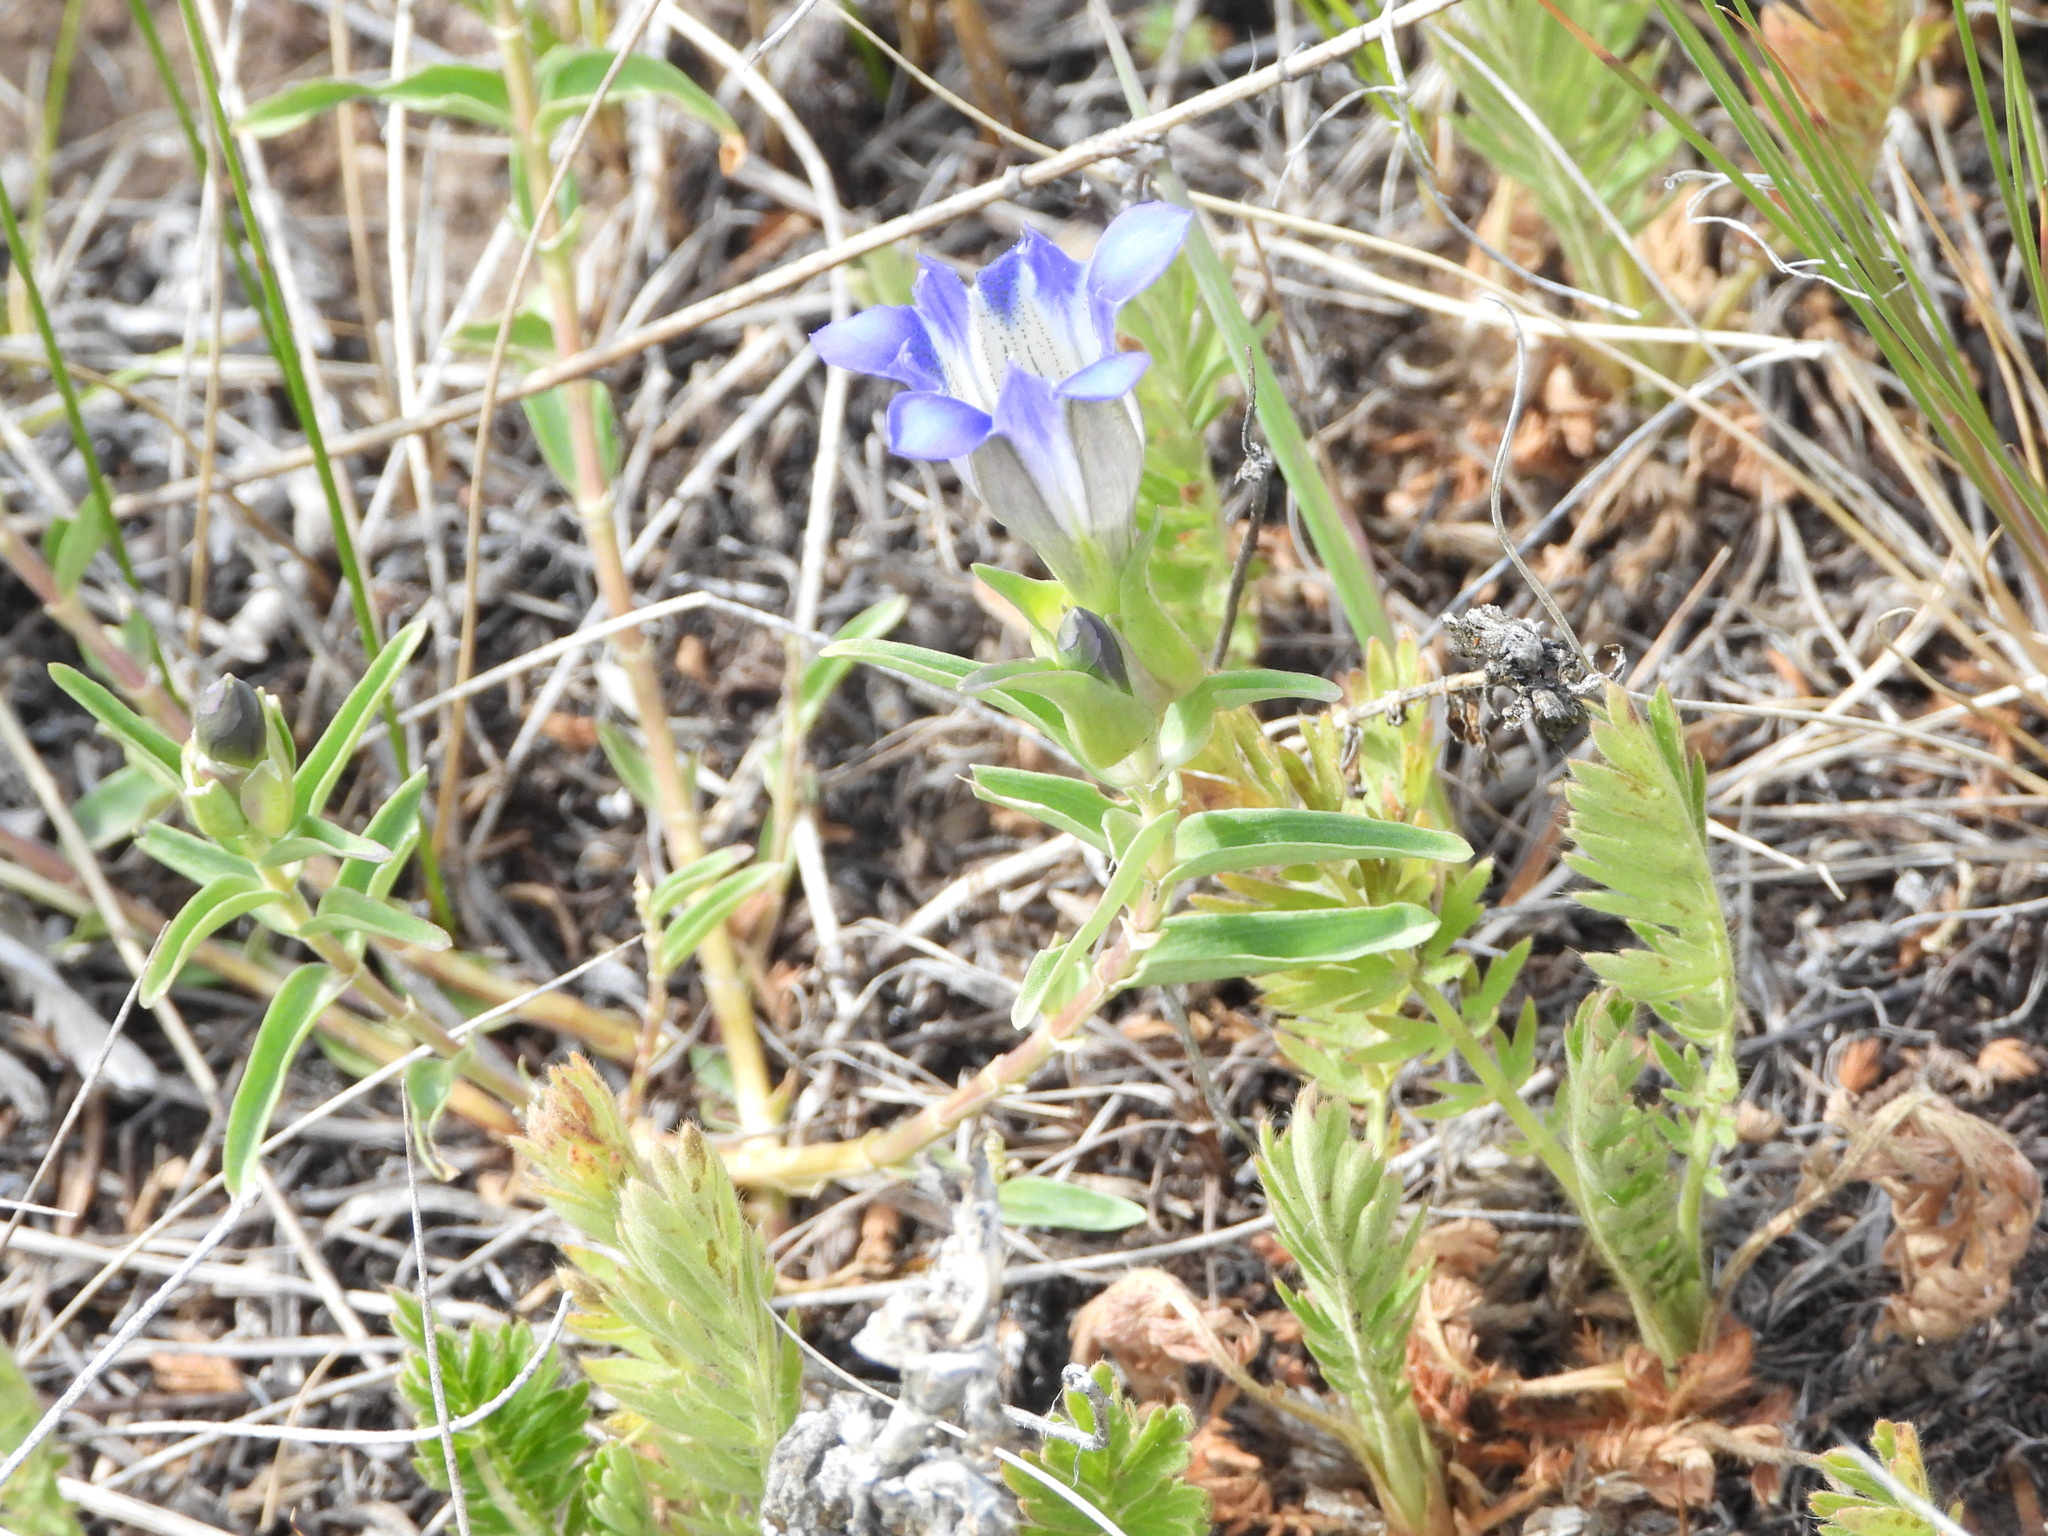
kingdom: Plantae
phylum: Tracheophyta
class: Magnoliopsida
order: Gentianales
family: Gentianaceae
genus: Gentiana
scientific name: Gentiana parryi
